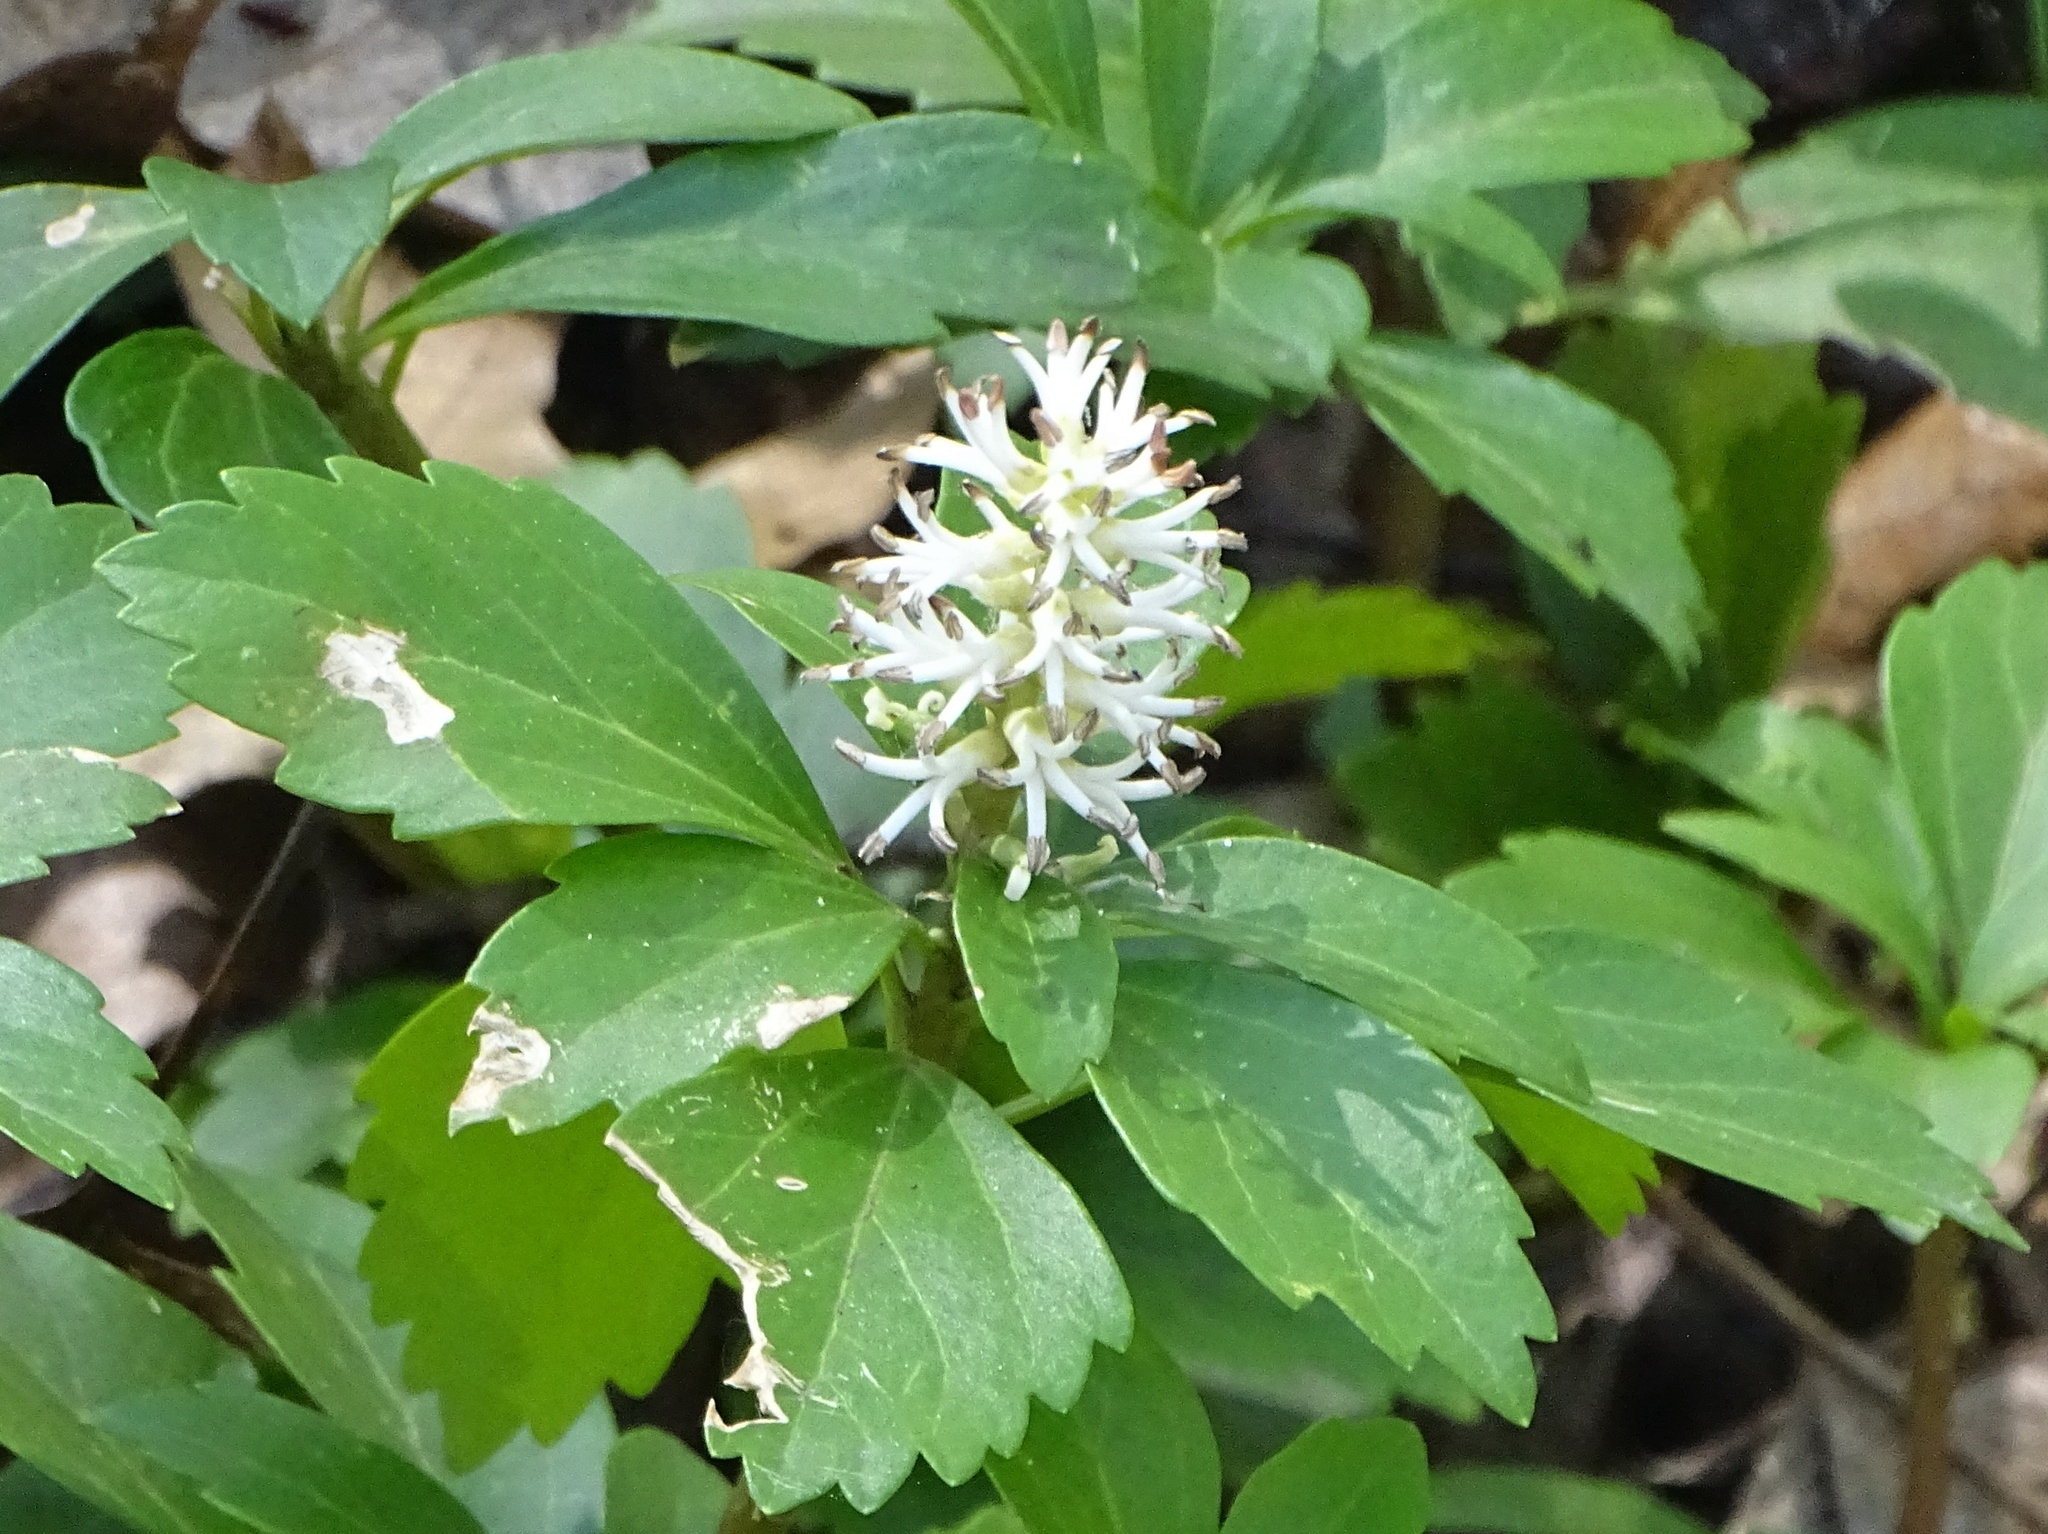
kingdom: Plantae
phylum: Tracheophyta
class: Magnoliopsida
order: Buxales
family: Buxaceae
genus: Pachysandra
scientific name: Pachysandra terminalis
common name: Japanese pachysandra
